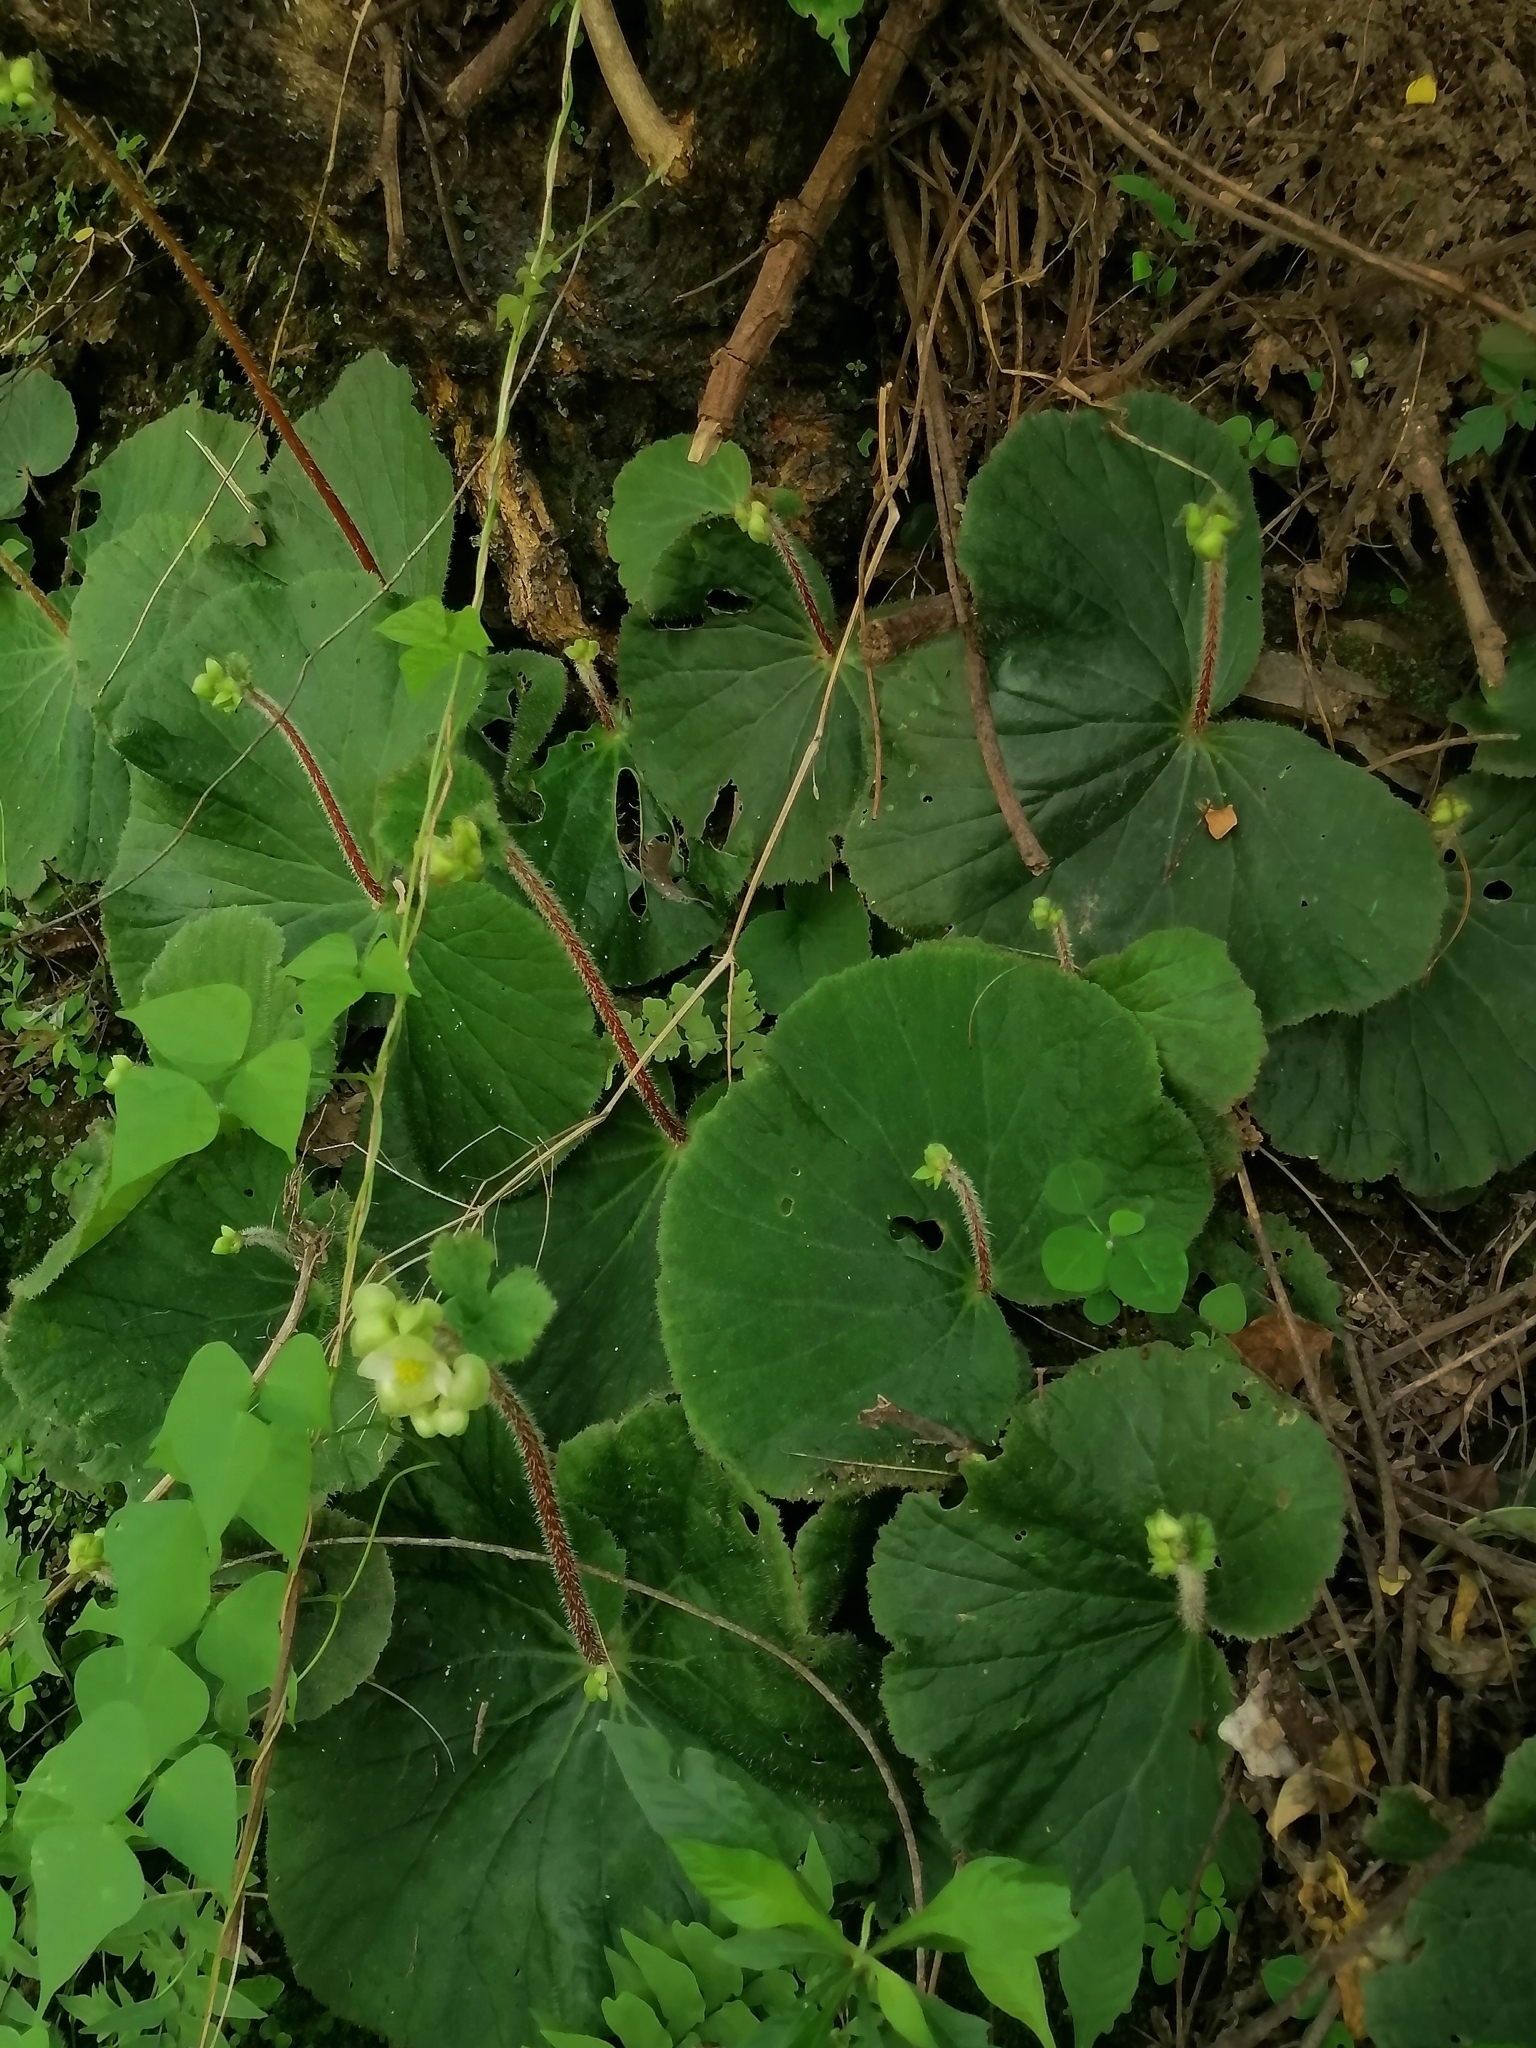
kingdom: Plantae
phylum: Tracheophyta
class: Magnoliopsida
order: Cucurbitales
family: Begoniaceae
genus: Begonia
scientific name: Begonia monophylla
